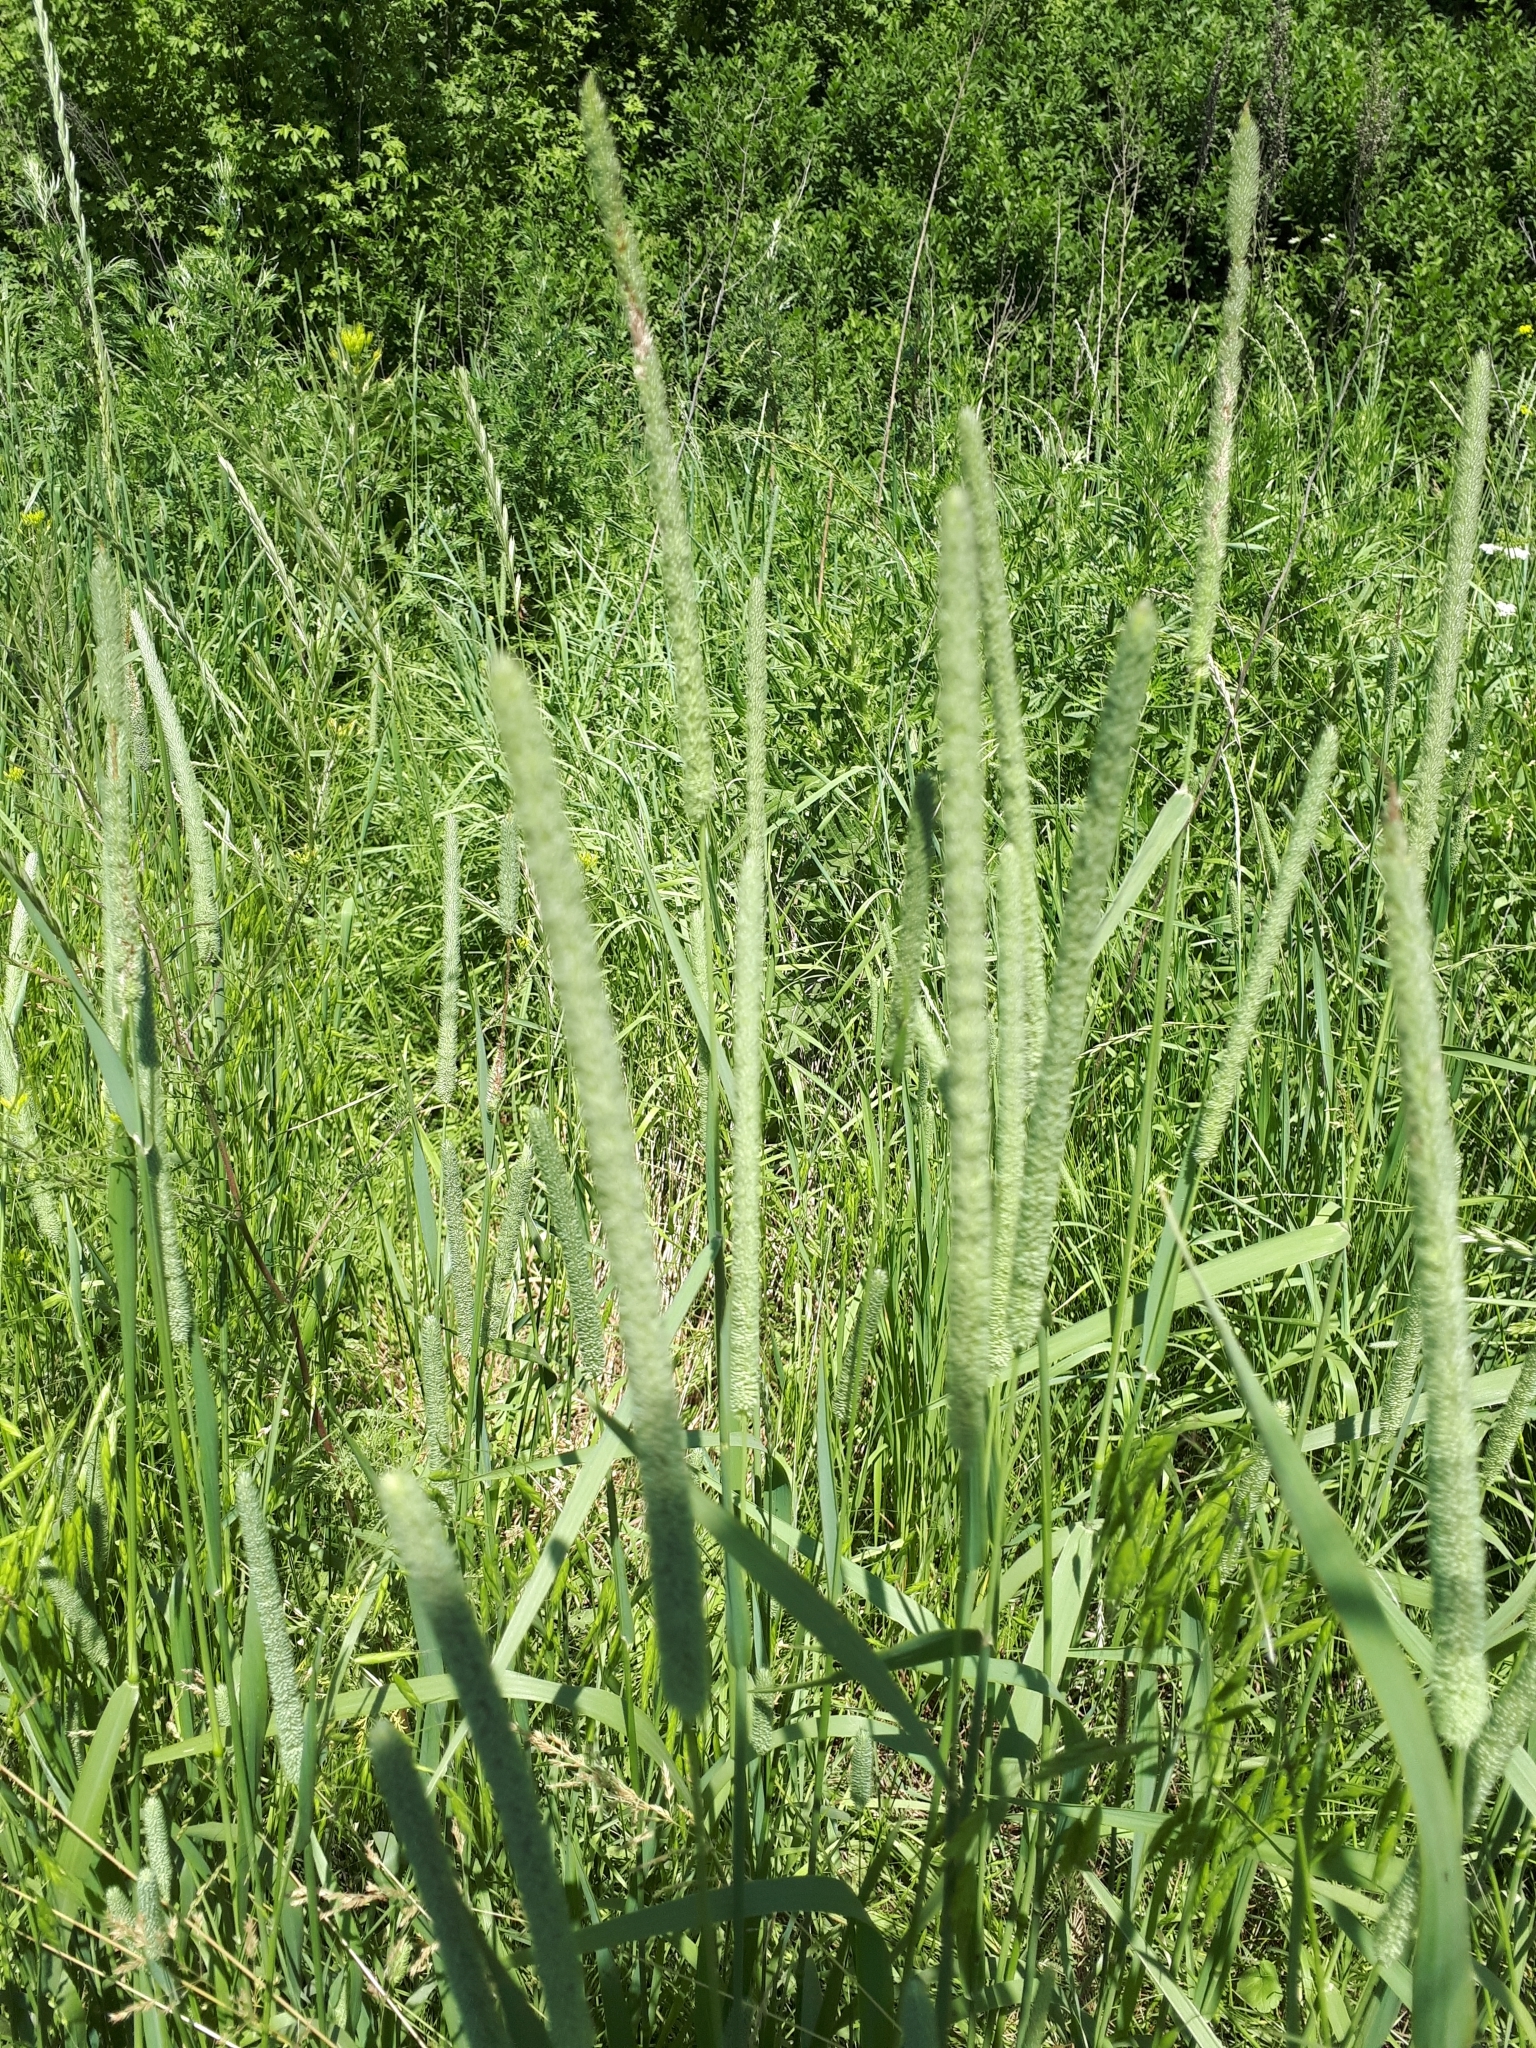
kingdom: Plantae
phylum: Tracheophyta
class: Liliopsida
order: Poales
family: Poaceae
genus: Phleum
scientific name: Phleum pratense
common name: Timothy grass
